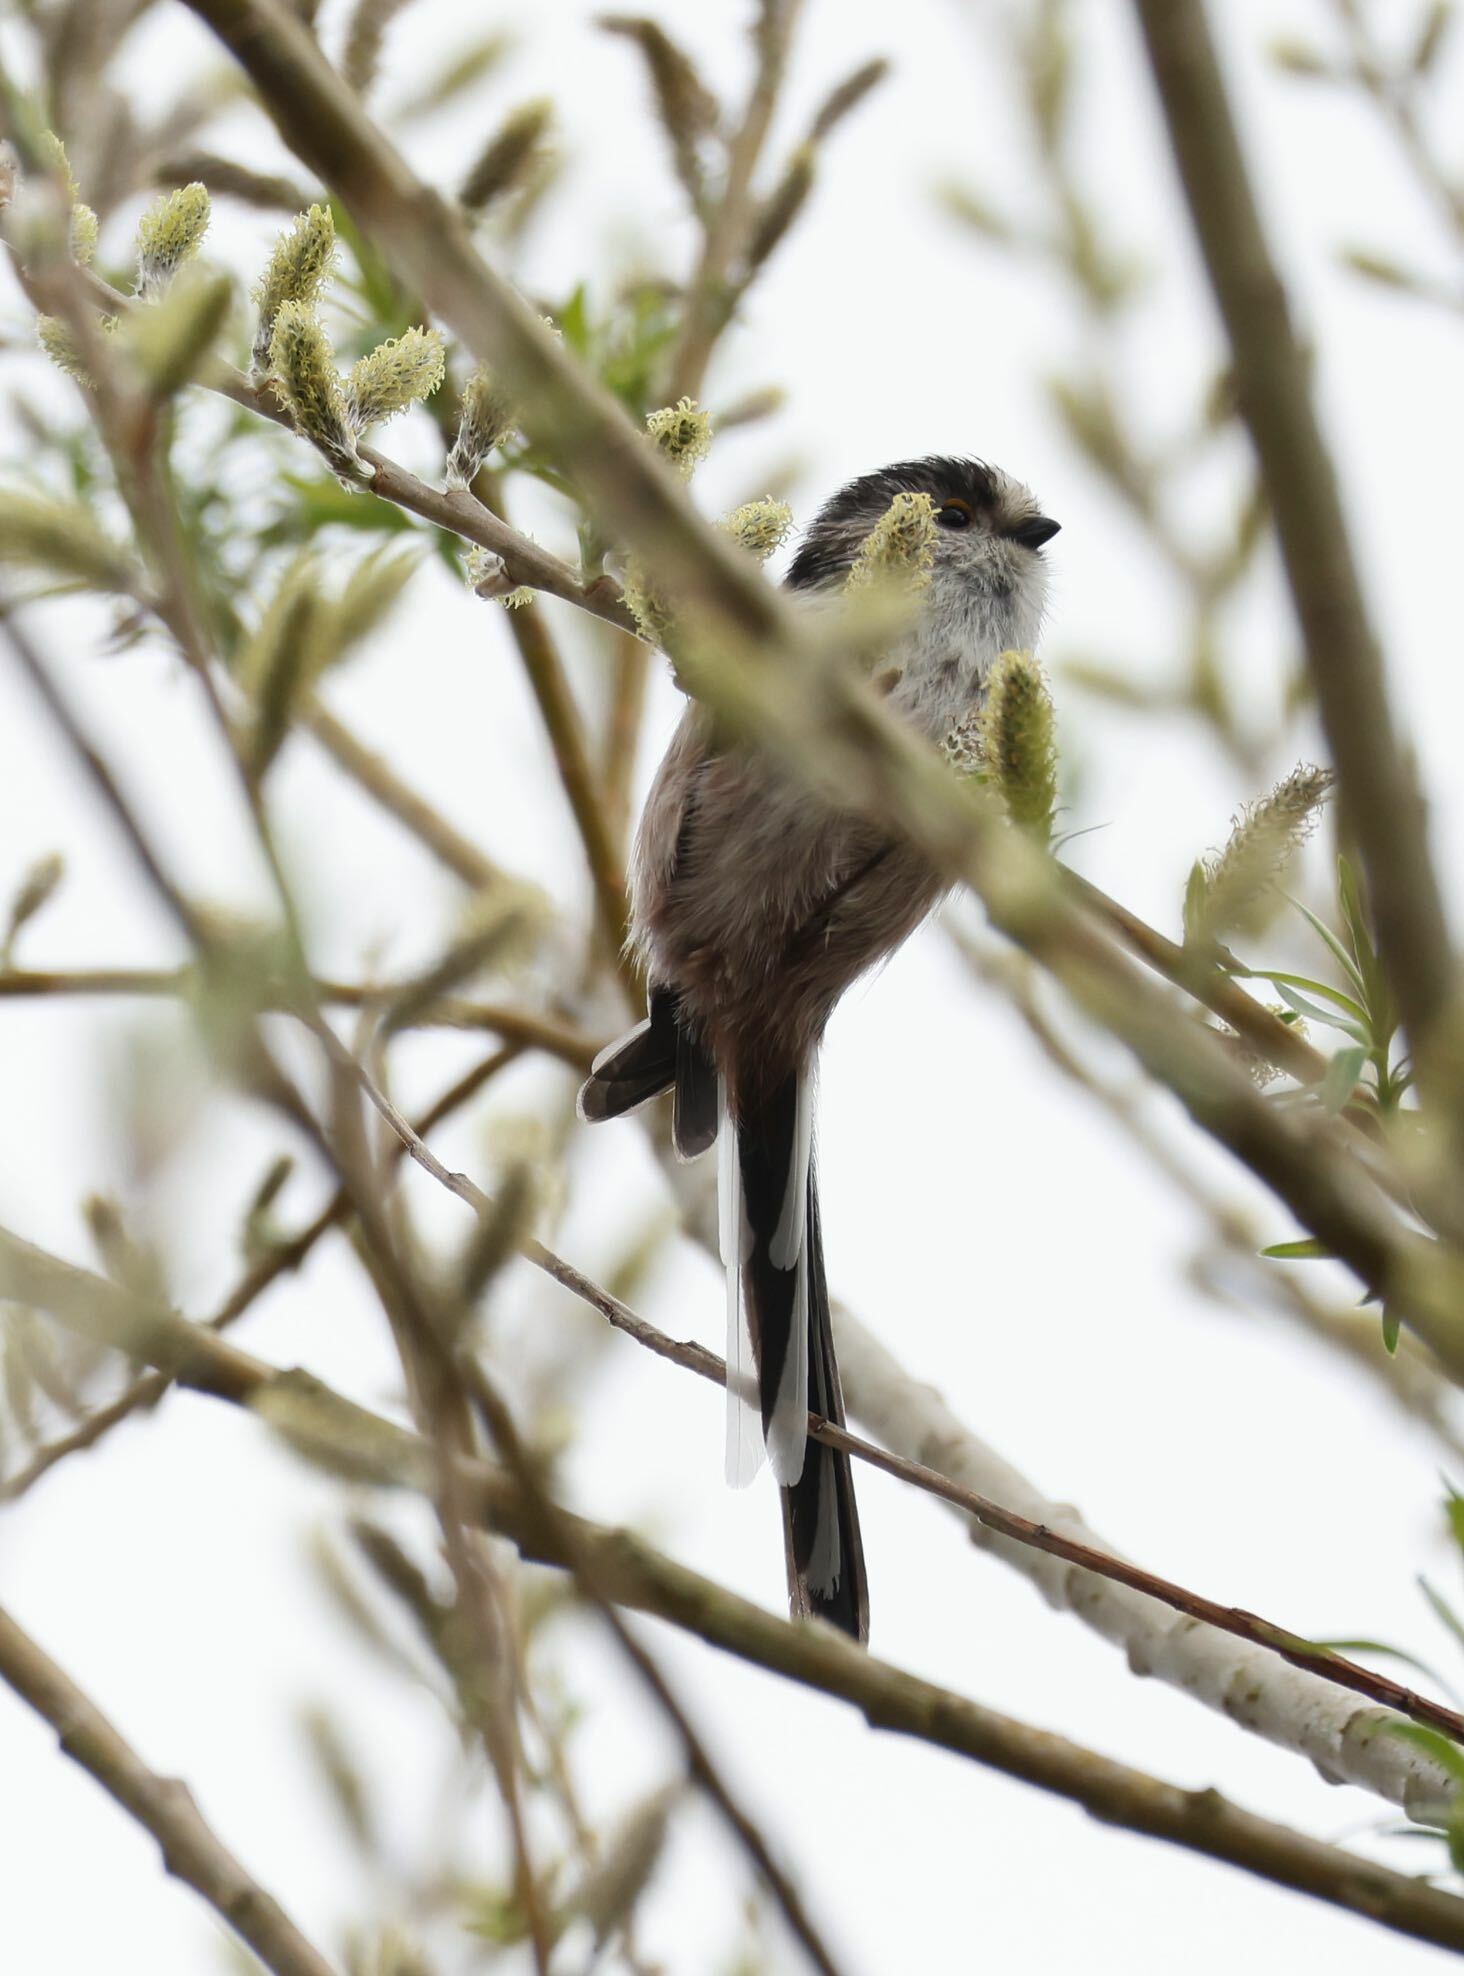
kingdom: Animalia
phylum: Chordata
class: Aves
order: Passeriformes
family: Aegithalidae
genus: Aegithalos
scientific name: Aegithalos caudatus
